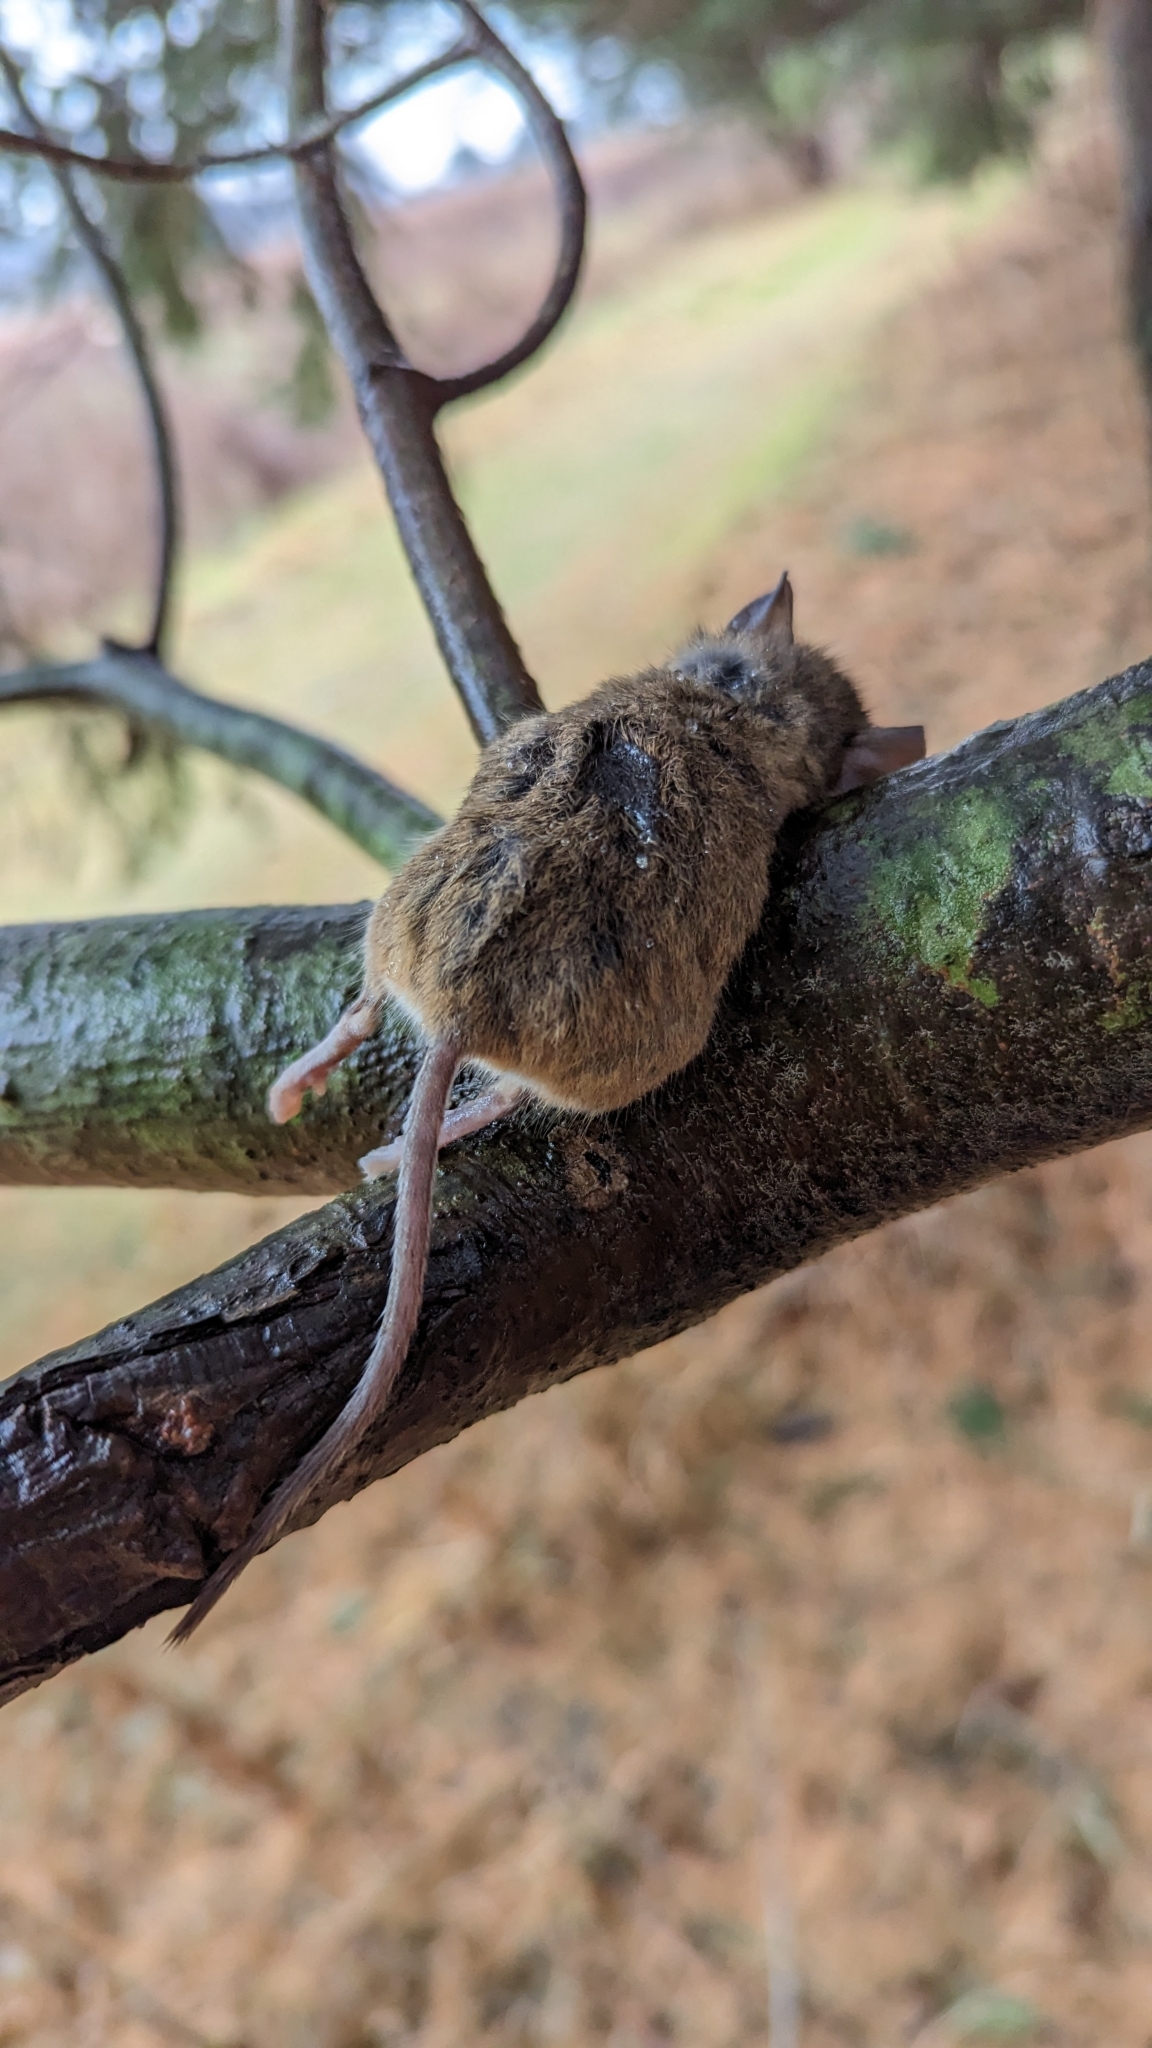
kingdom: Animalia
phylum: Chordata
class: Mammalia
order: Rodentia
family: Cricetidae
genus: Peromyscus
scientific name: Peromyscus leucopus
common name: White-footed deermouse
